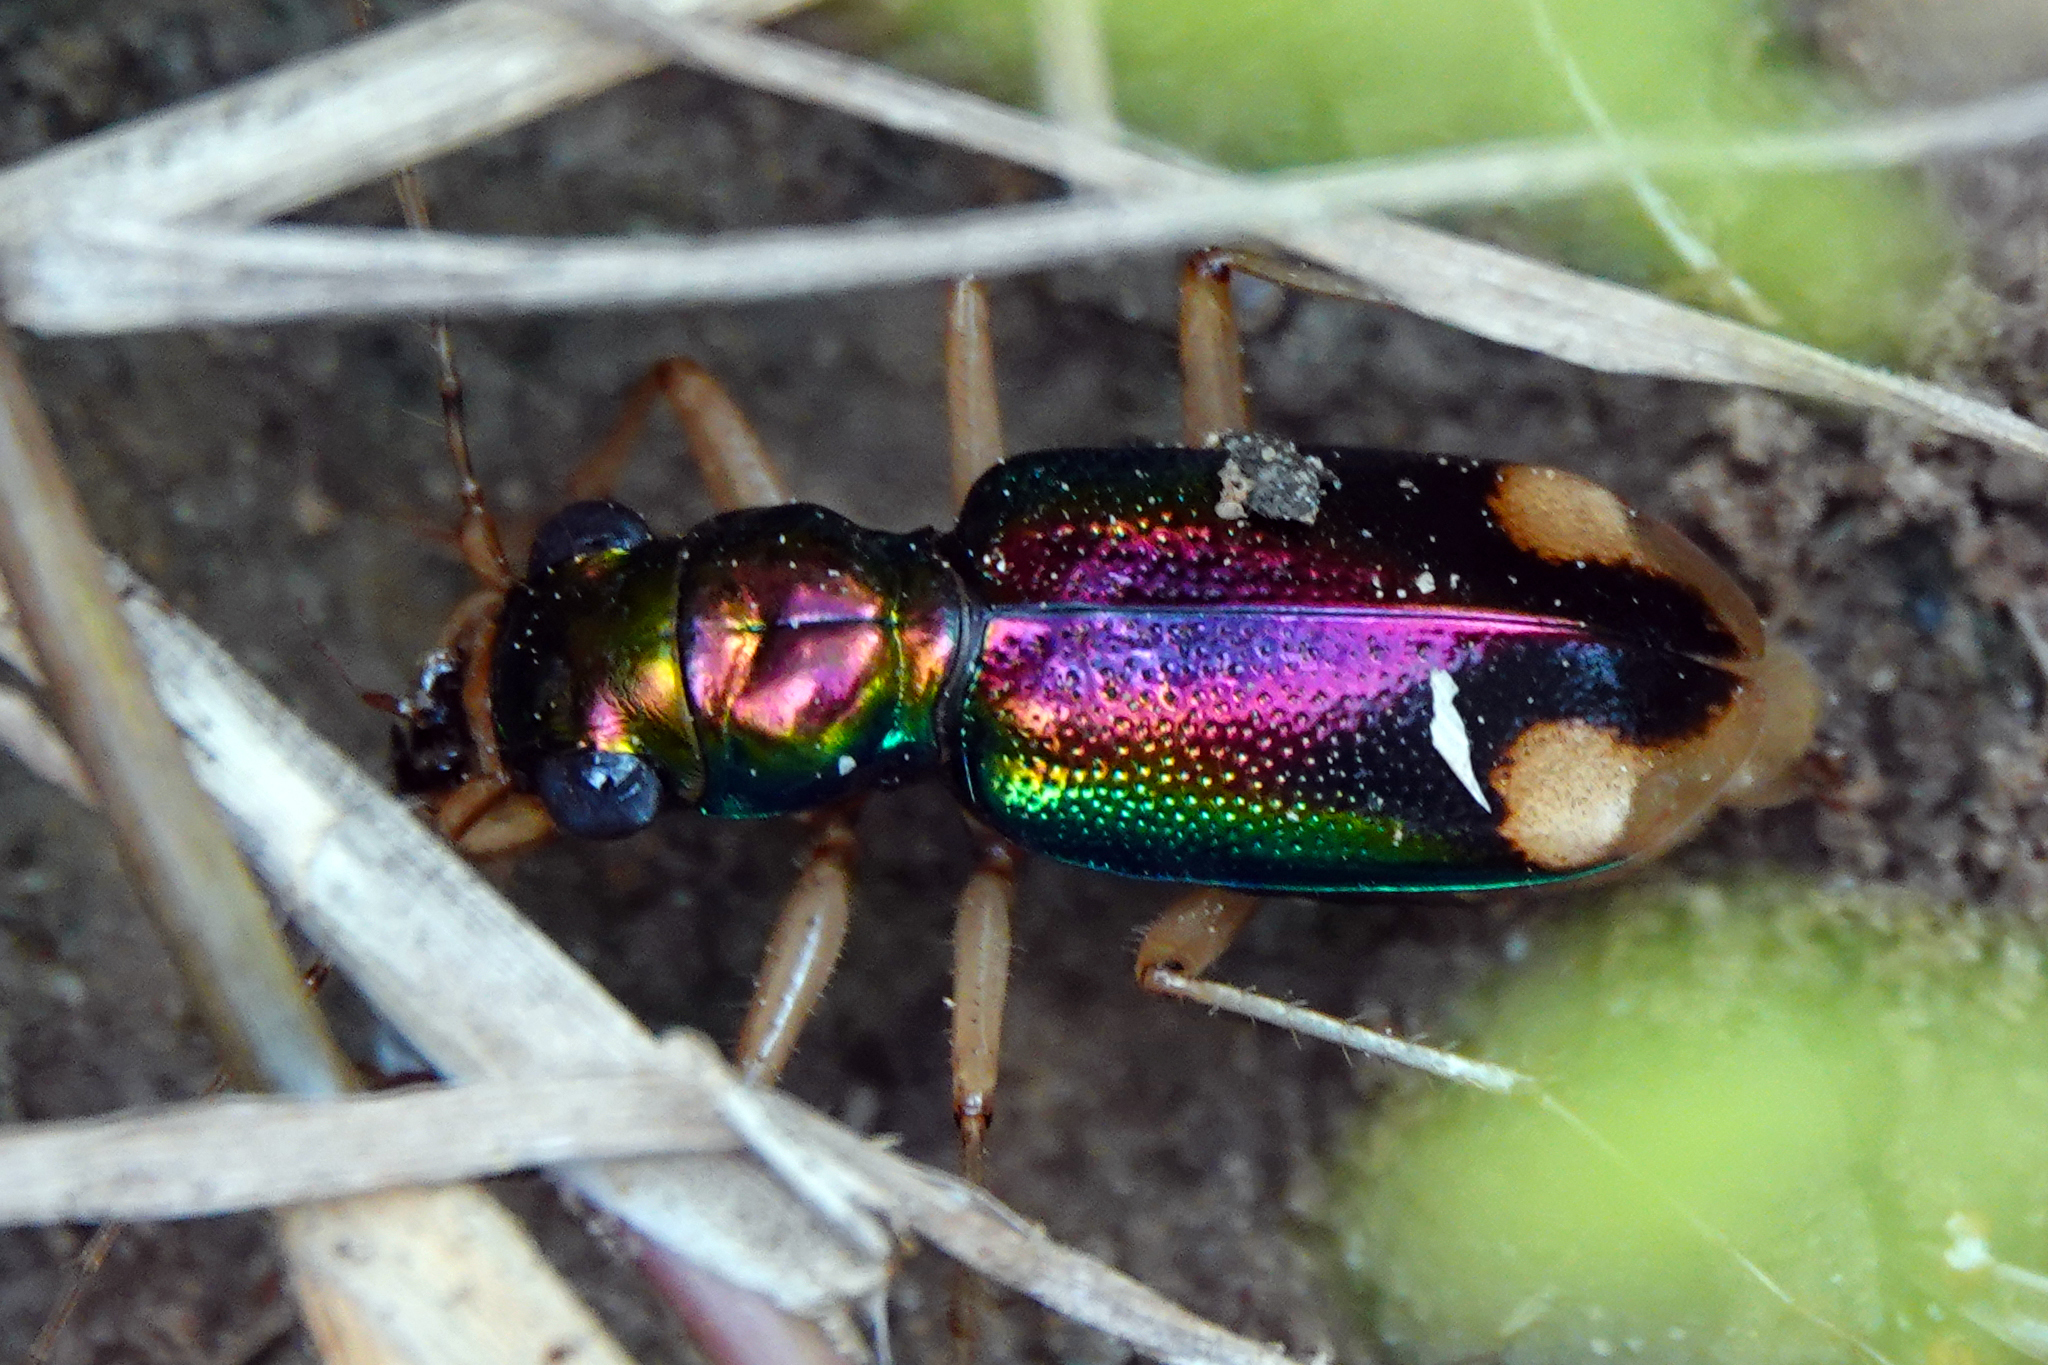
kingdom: Animalia
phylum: Arthropoda
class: Insecta
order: Coleoptera
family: Carabidae
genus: Tetracha
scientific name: Tetracha carolina
